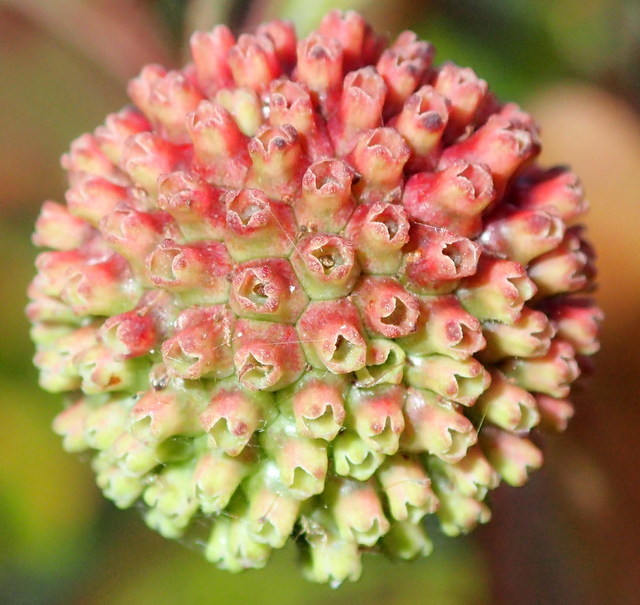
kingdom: Plantae
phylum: Tracheophyta
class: Magnoliopsida
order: Gentianales
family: Rubiaceae
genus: Cephalanthus
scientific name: Cephalanthus occidentalis
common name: Button-willow
